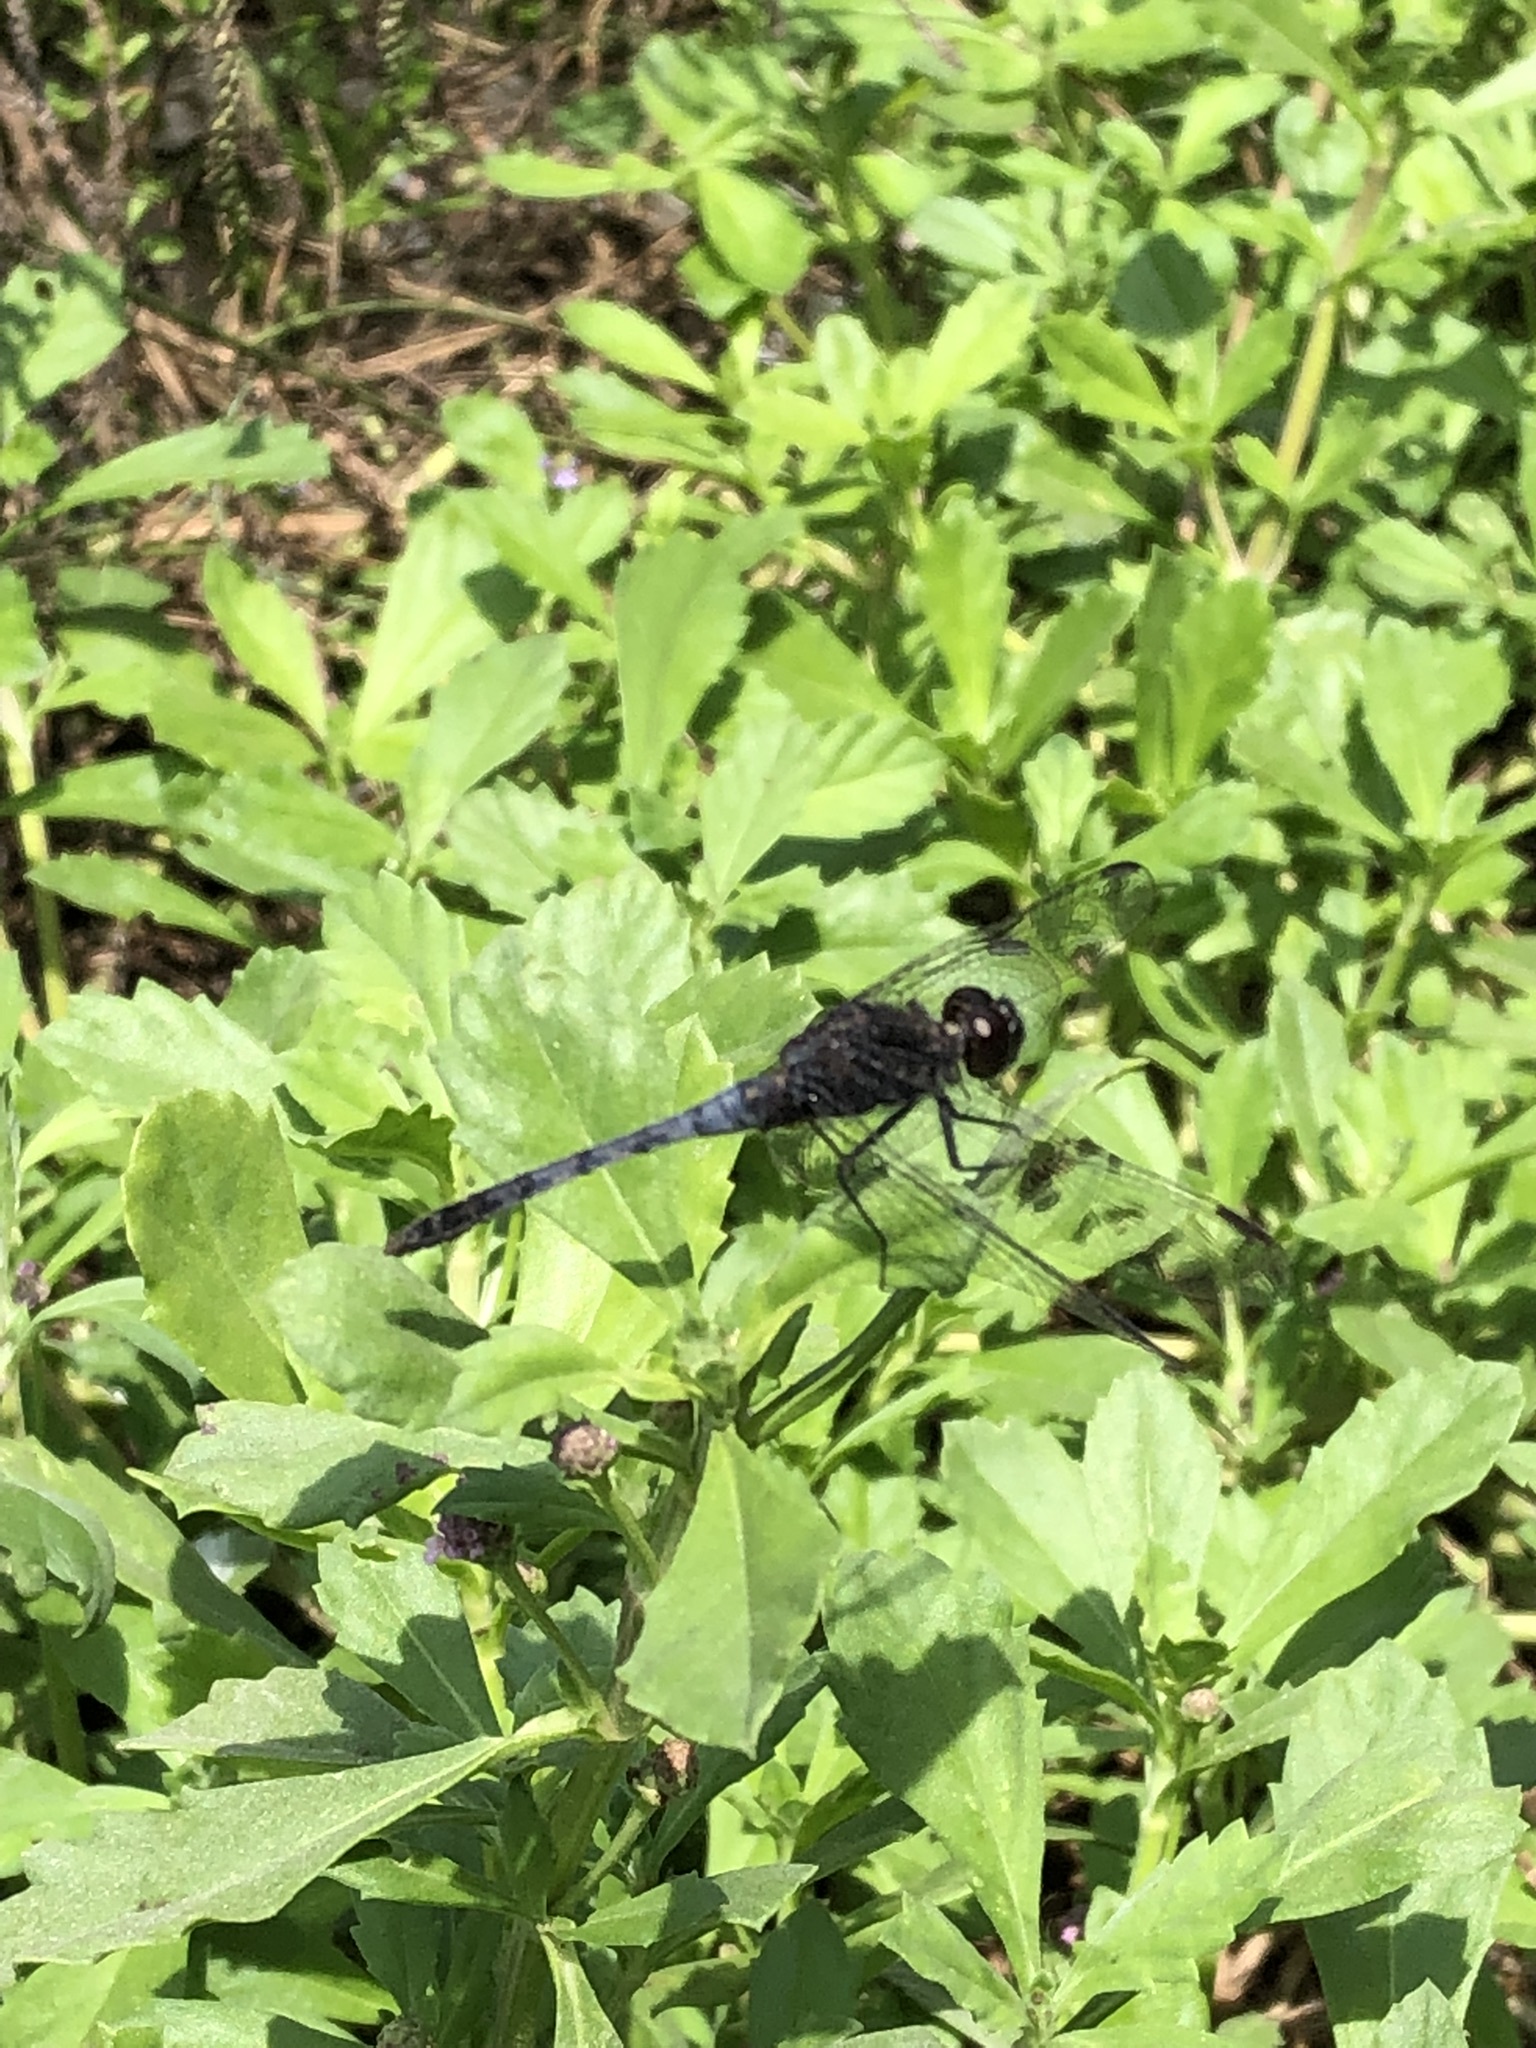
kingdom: Animalia
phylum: Arthropoda
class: Insecta
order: Odonata
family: Libellulidae
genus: Erythrodiplax
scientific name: Erythrodiplax cleopatra
